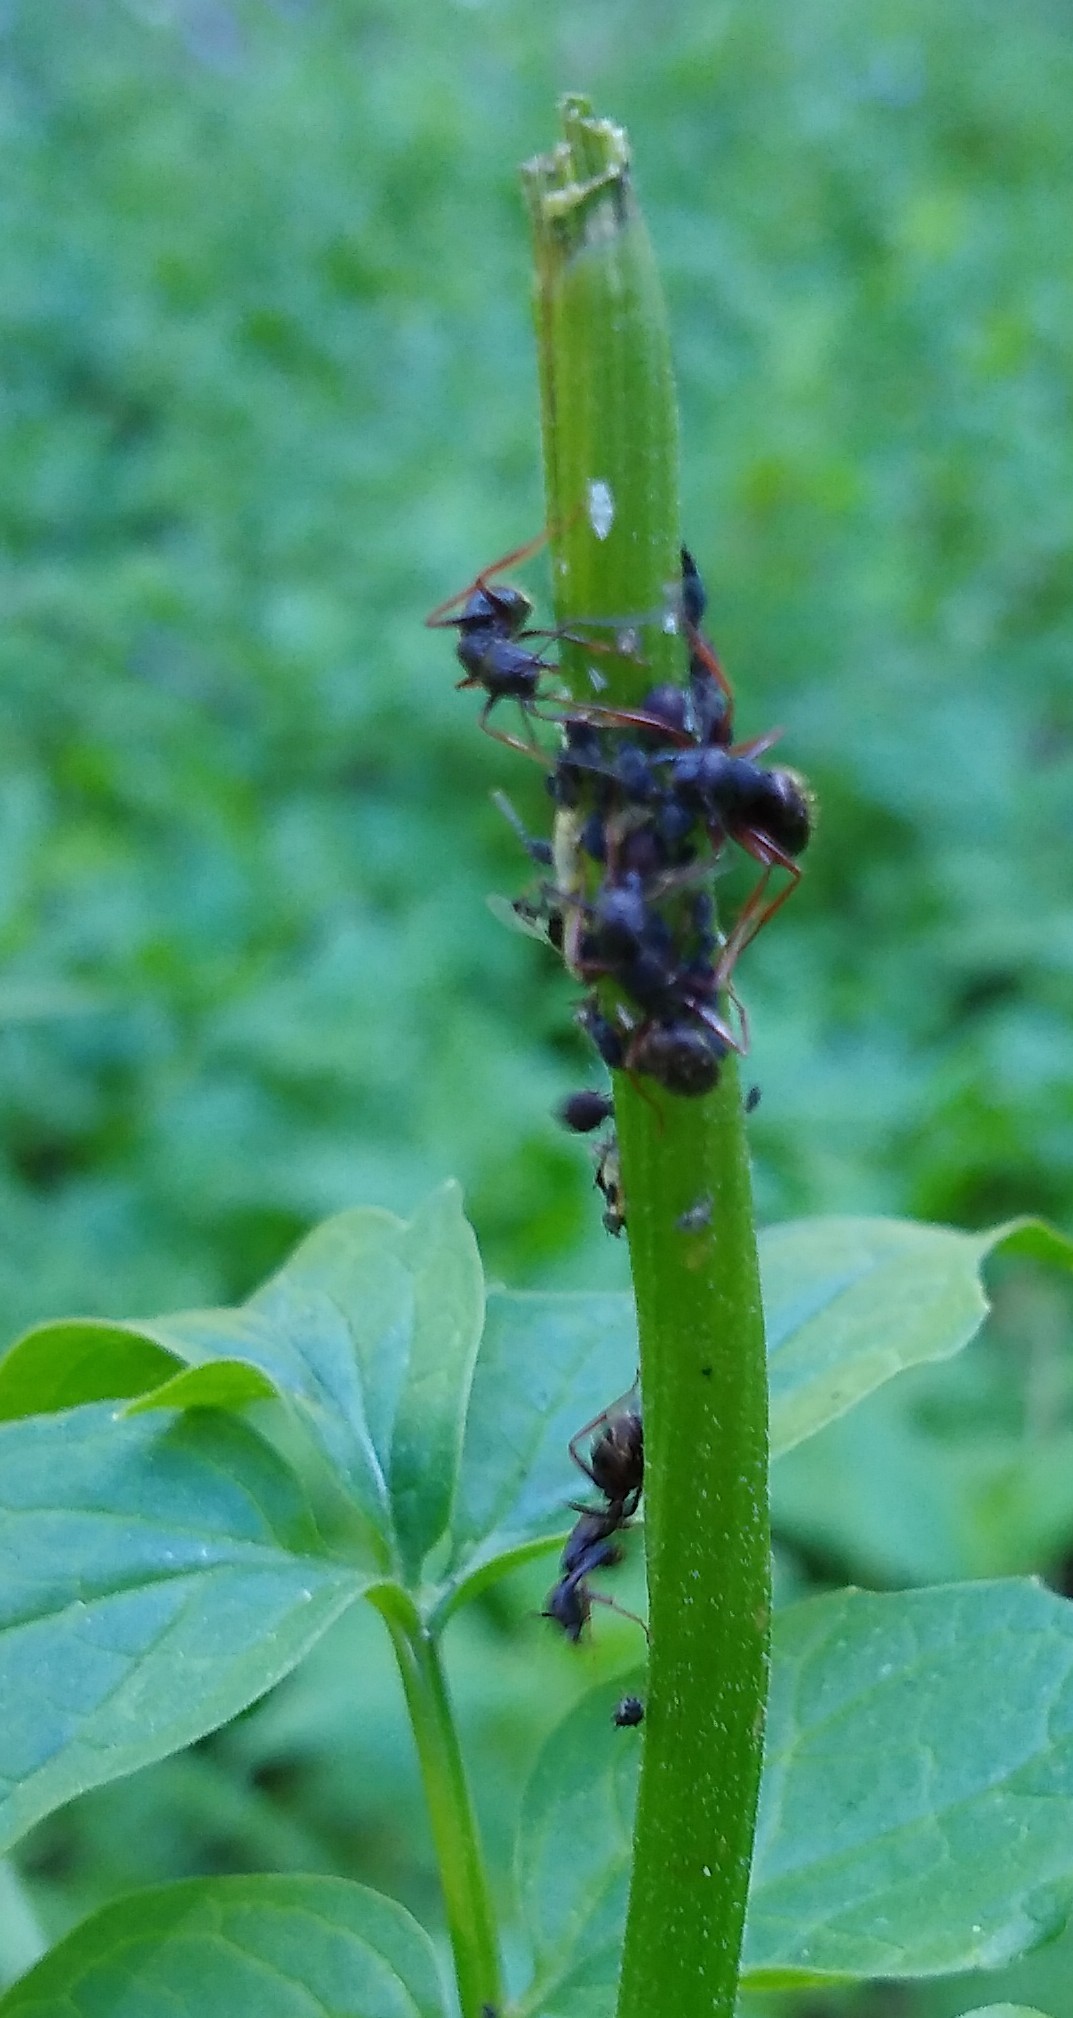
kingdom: Animalia
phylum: Arthropoda
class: Insecta
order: Hymenoptera
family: Formicidae
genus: Camponotus
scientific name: Camponotus modoc
